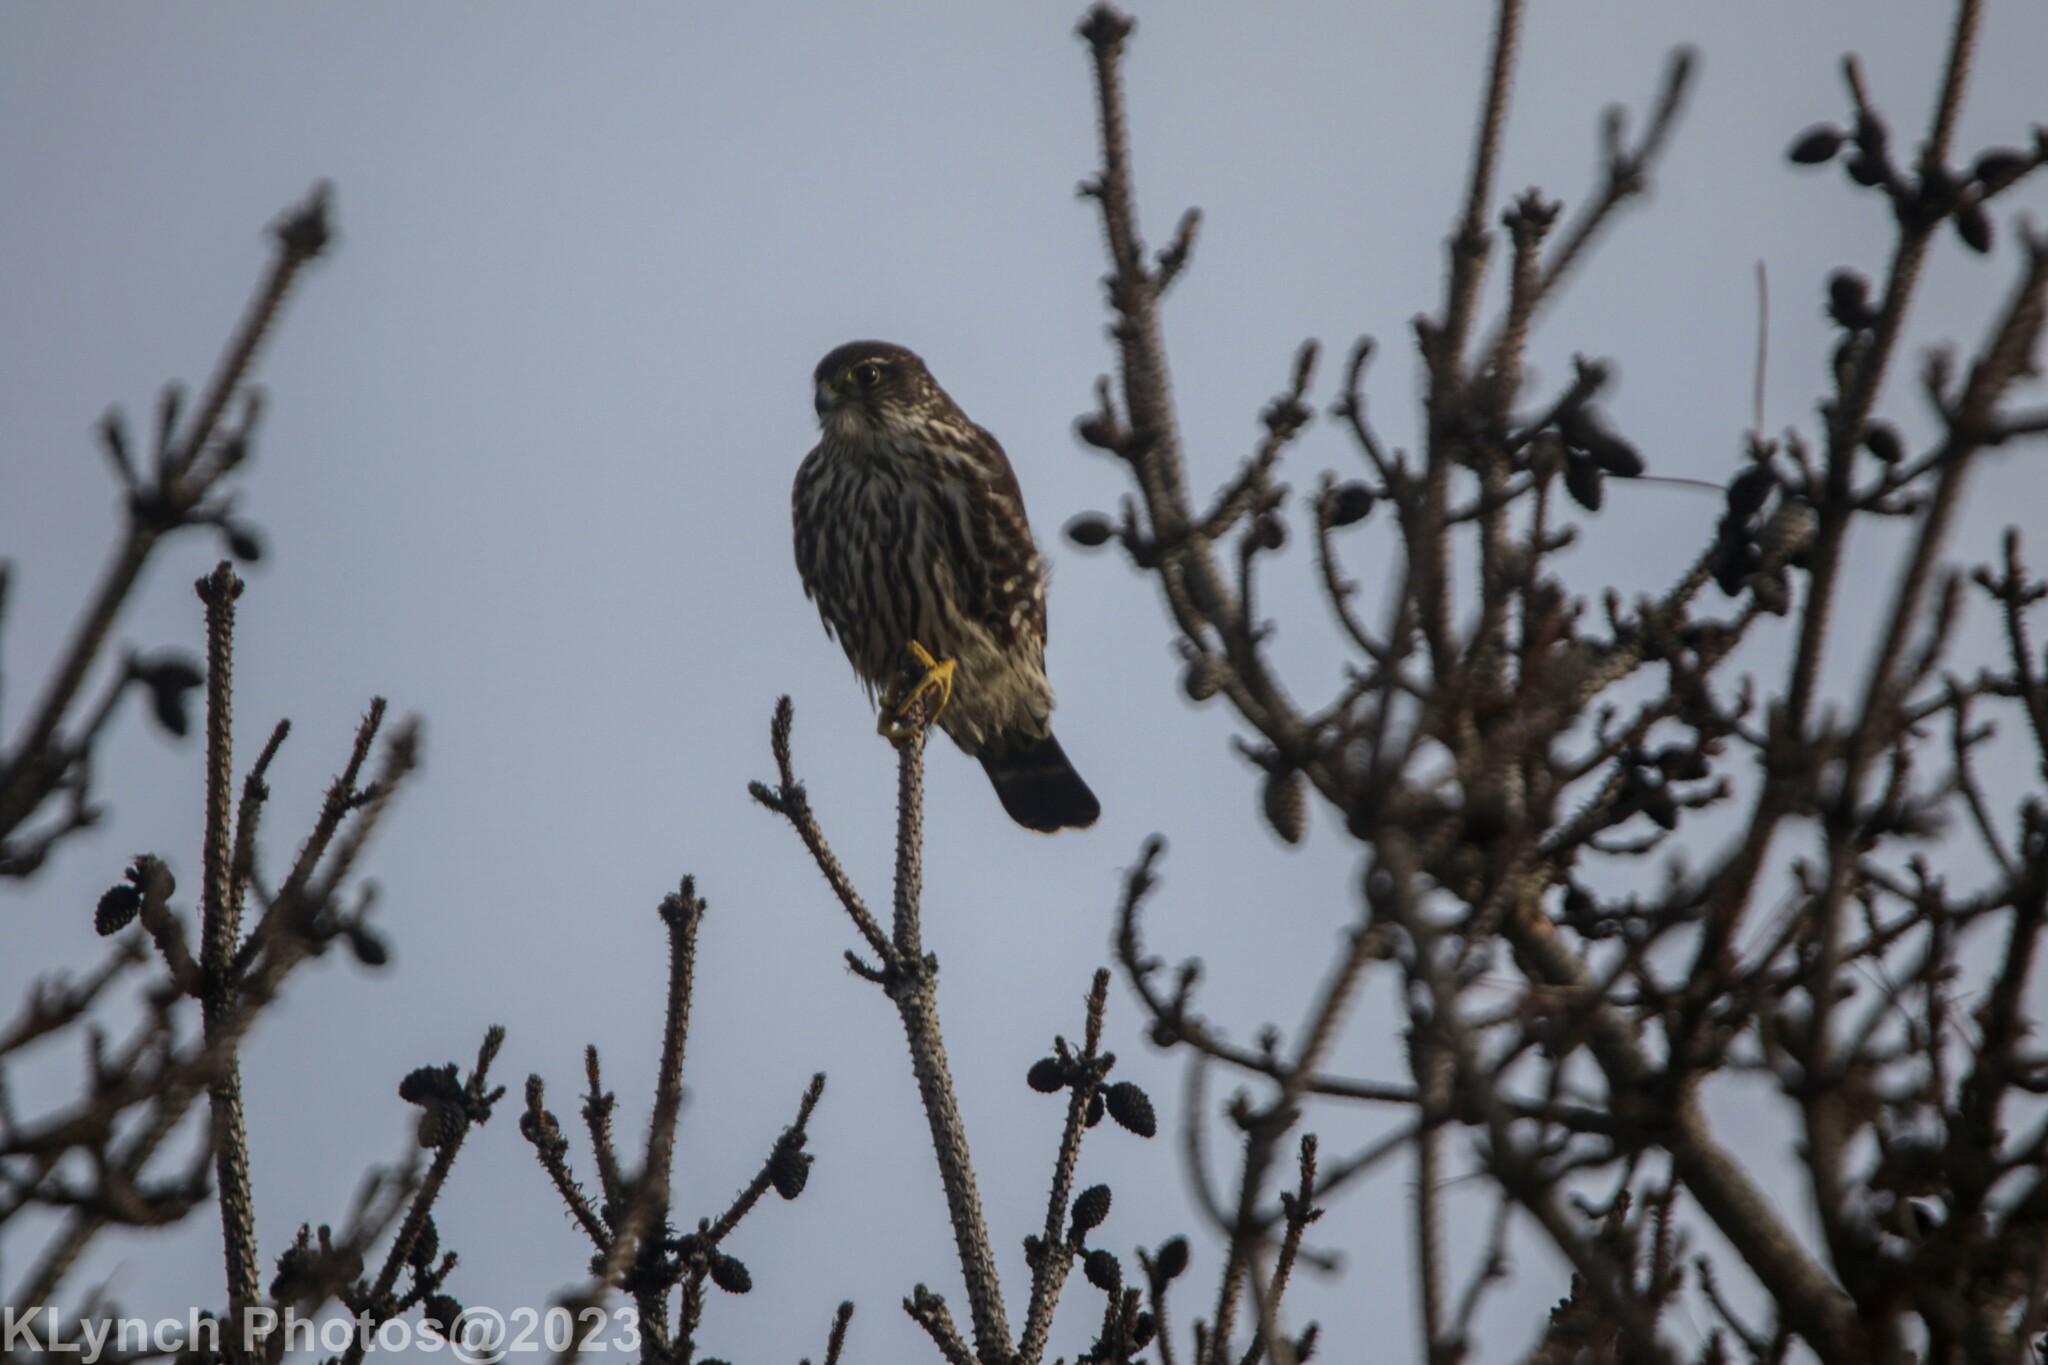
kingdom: Animalia
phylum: Chordata
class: Aves
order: Falconiformes
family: Falconidae
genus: Falco
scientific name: Falco columbarius
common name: Merlin
